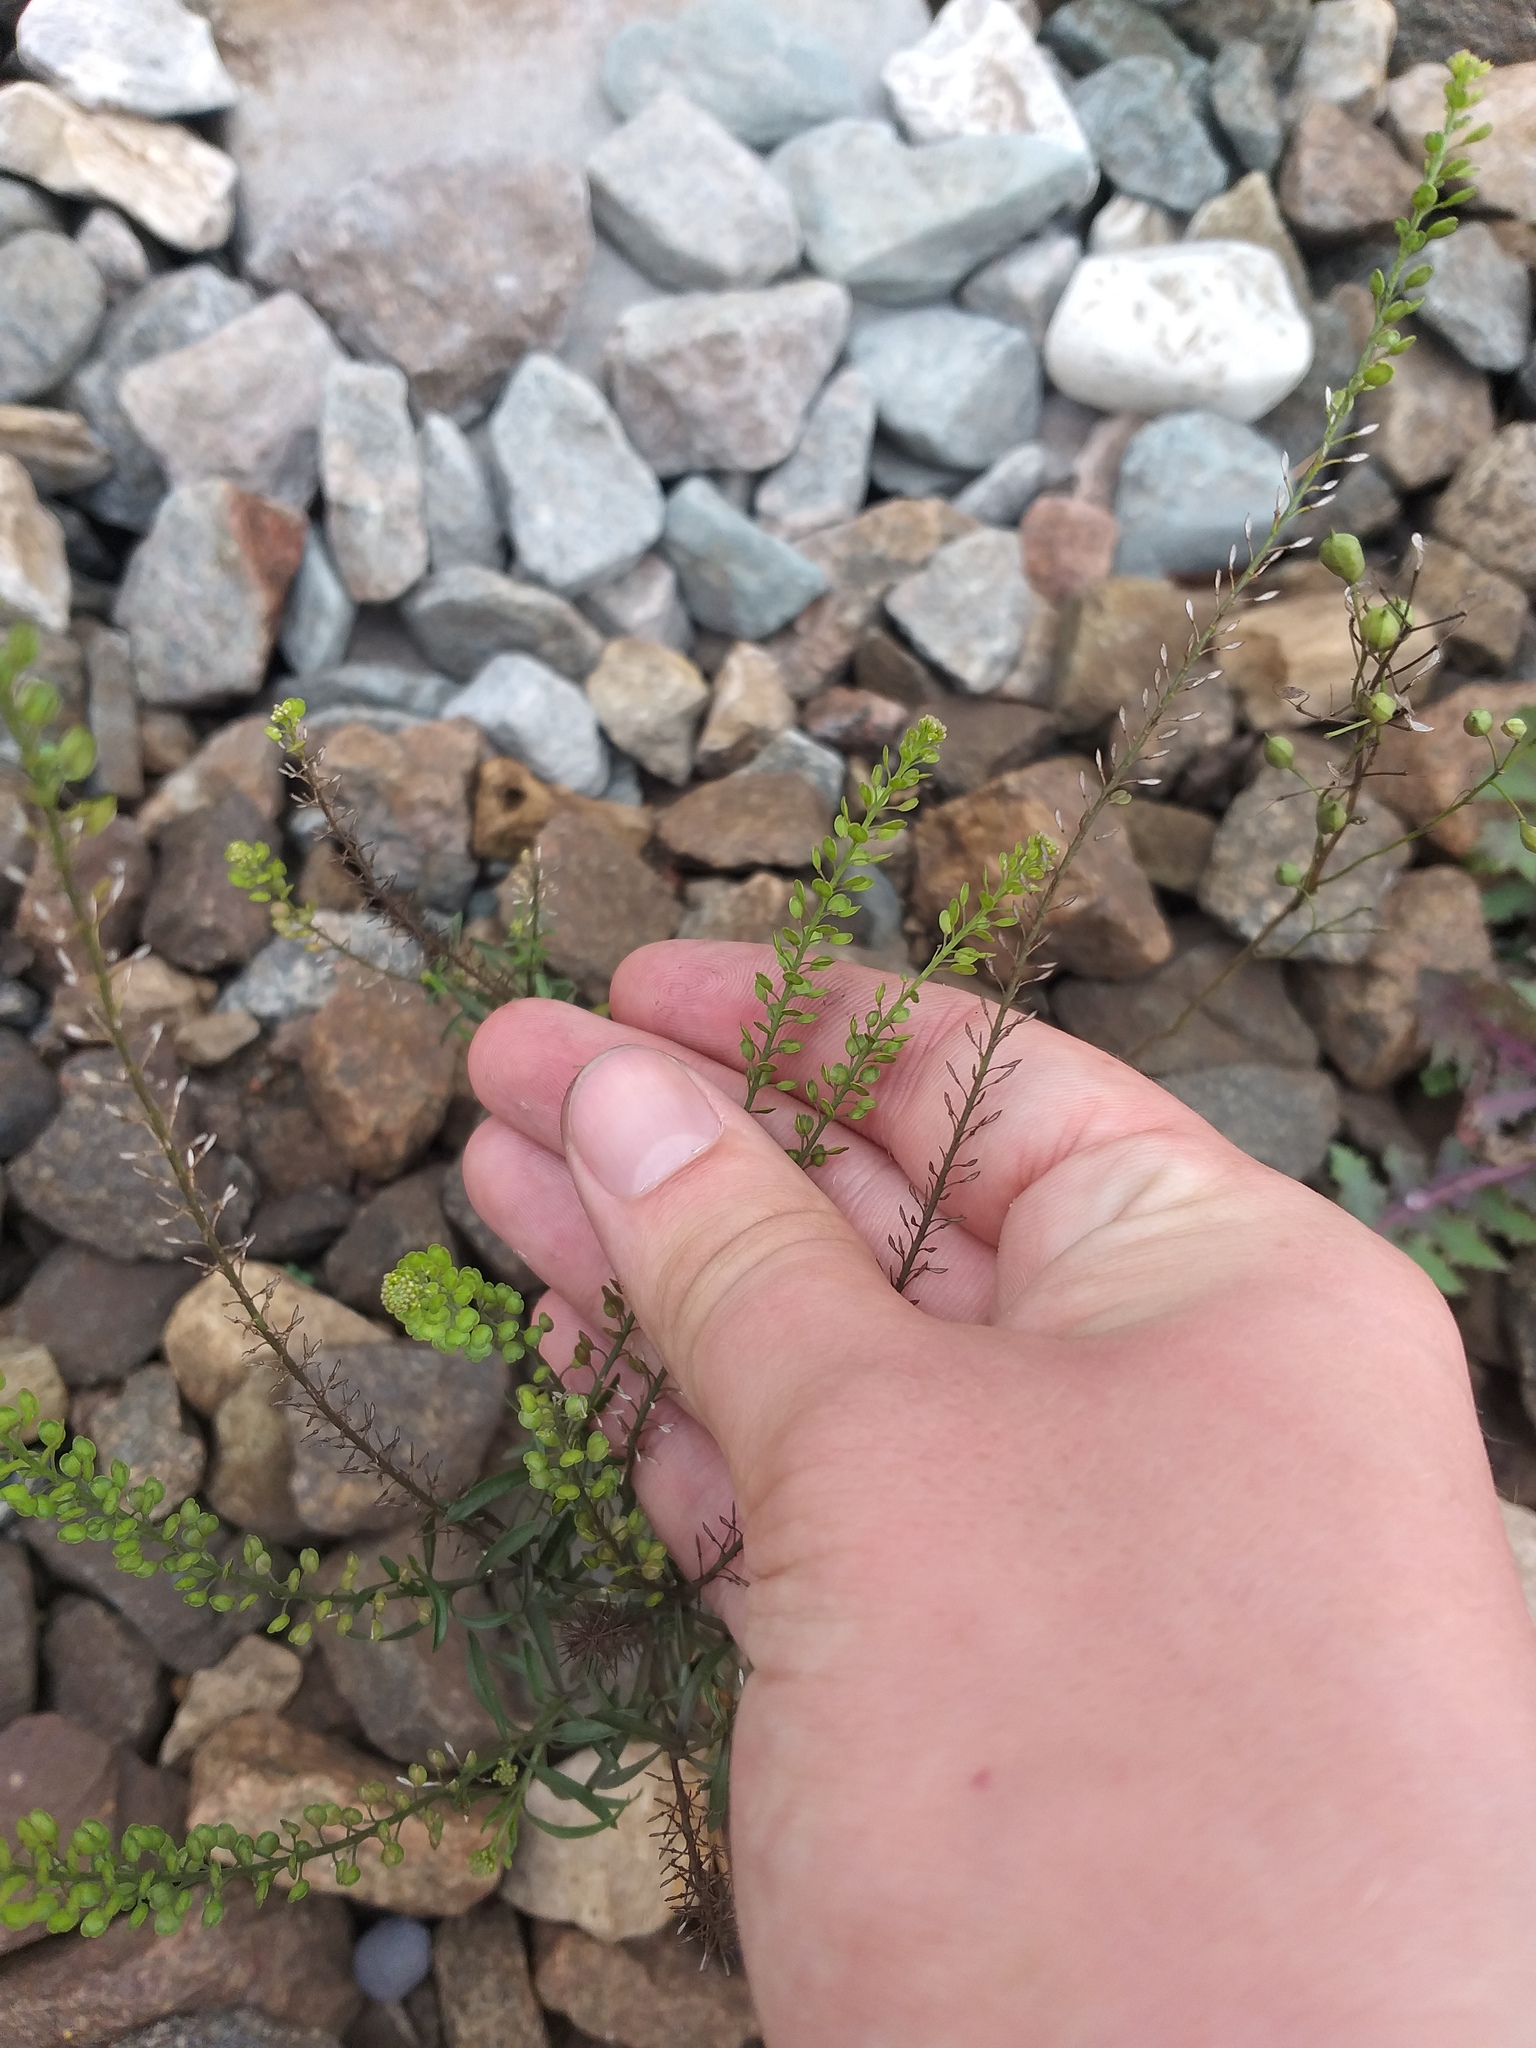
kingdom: Plantae
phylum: Tracheophyta
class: Magnoliopsida
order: Brassicales
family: Brassicaceae
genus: Lepidium
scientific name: Lepidium densiflorum
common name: Miner's pepperwort
